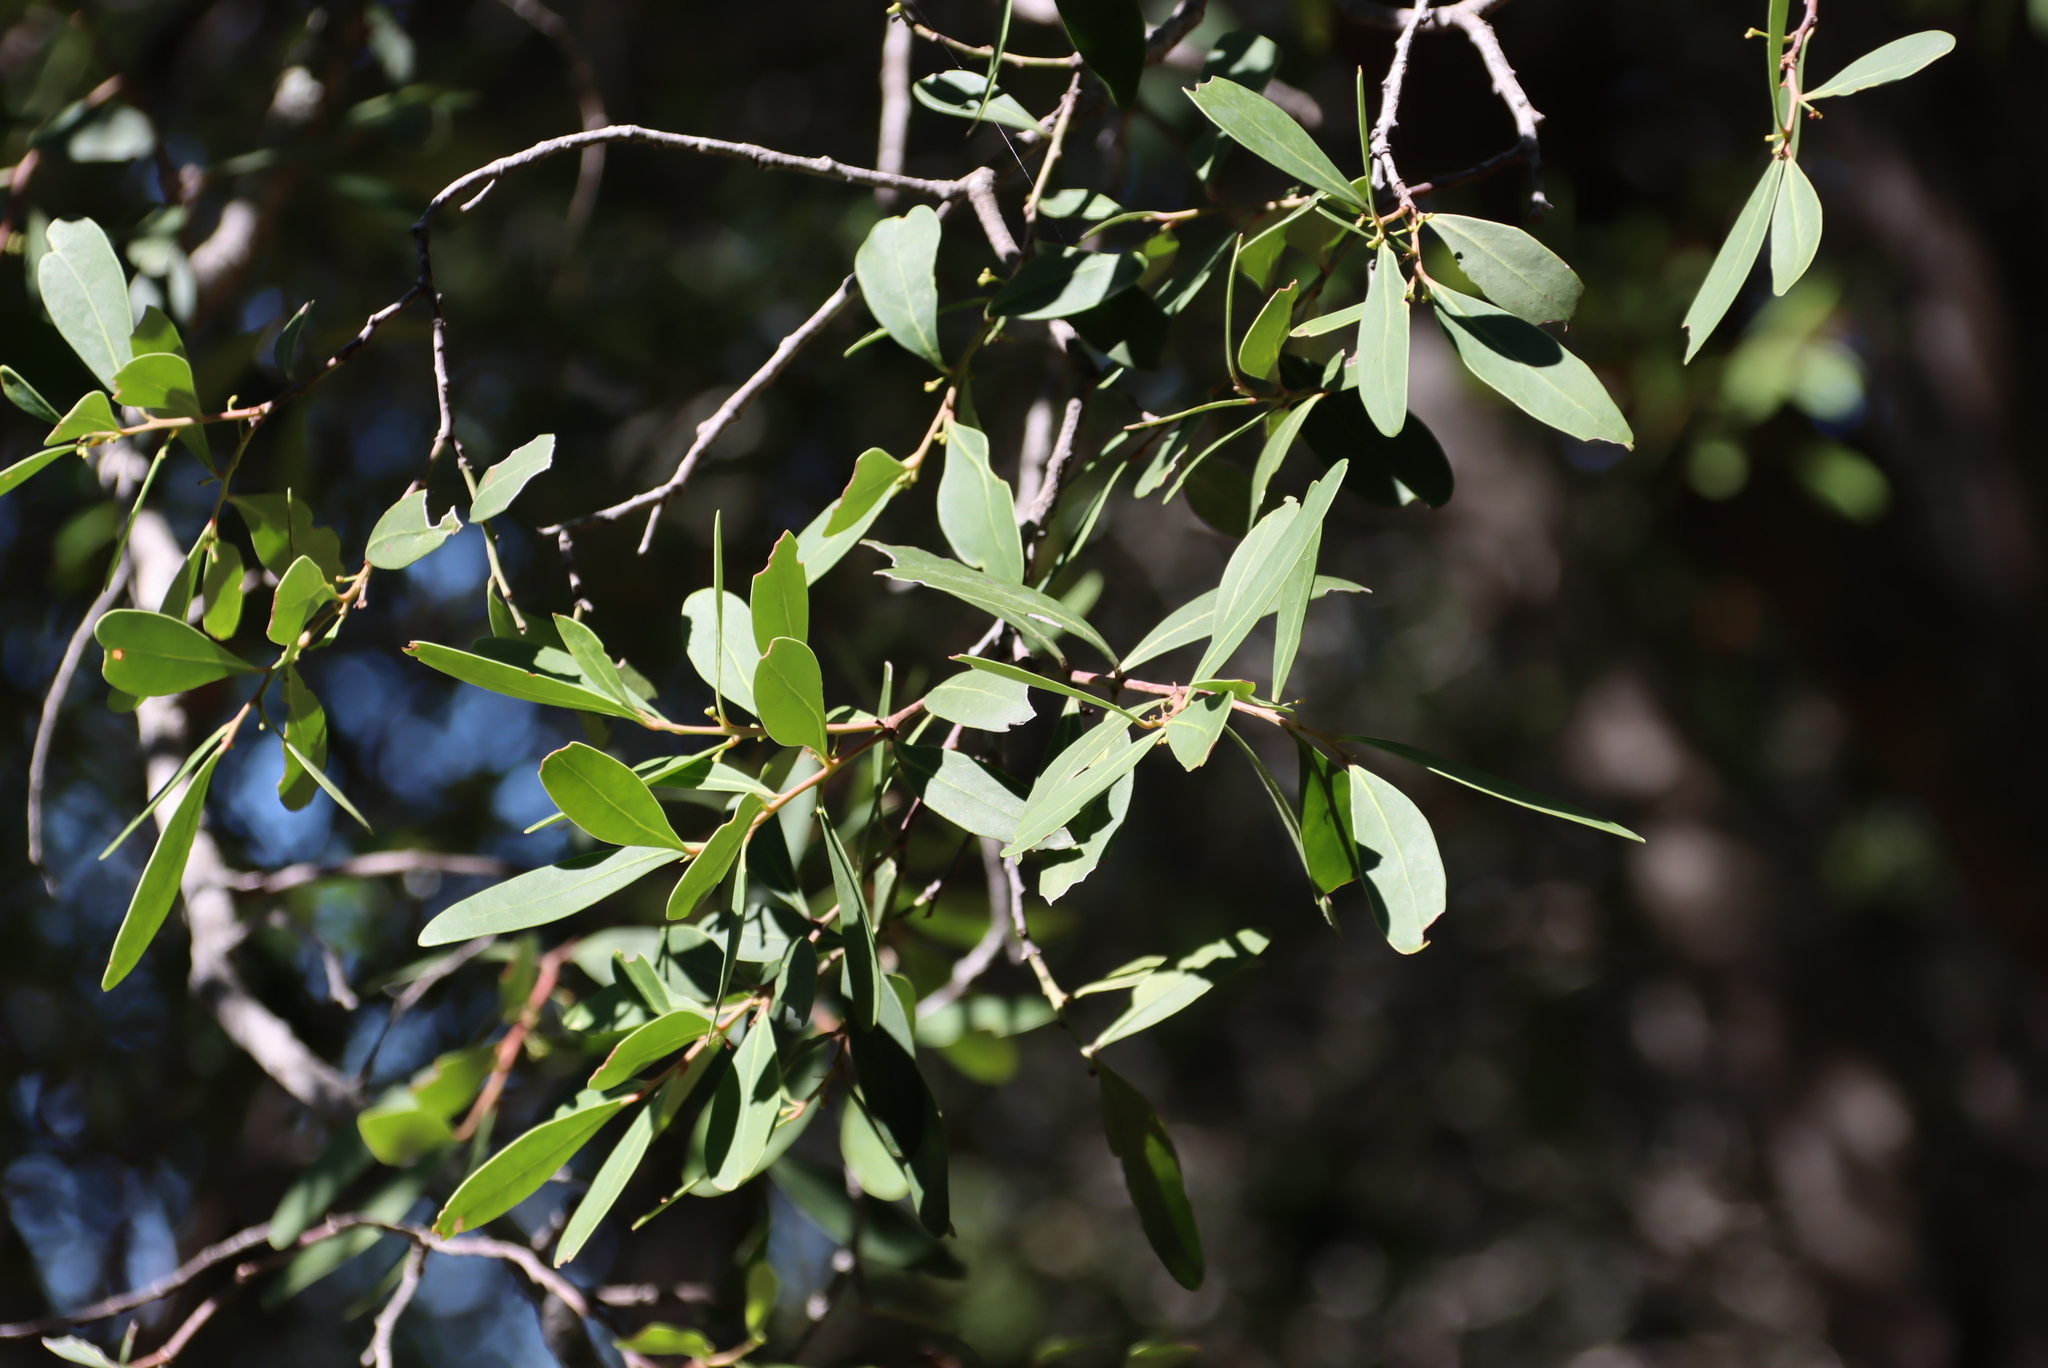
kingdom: Plantae
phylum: Tracheophyta
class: Magnoliopsida
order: Celastrales
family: Celastraceae
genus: Gymnosporia
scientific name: Gymnosporia laurina
